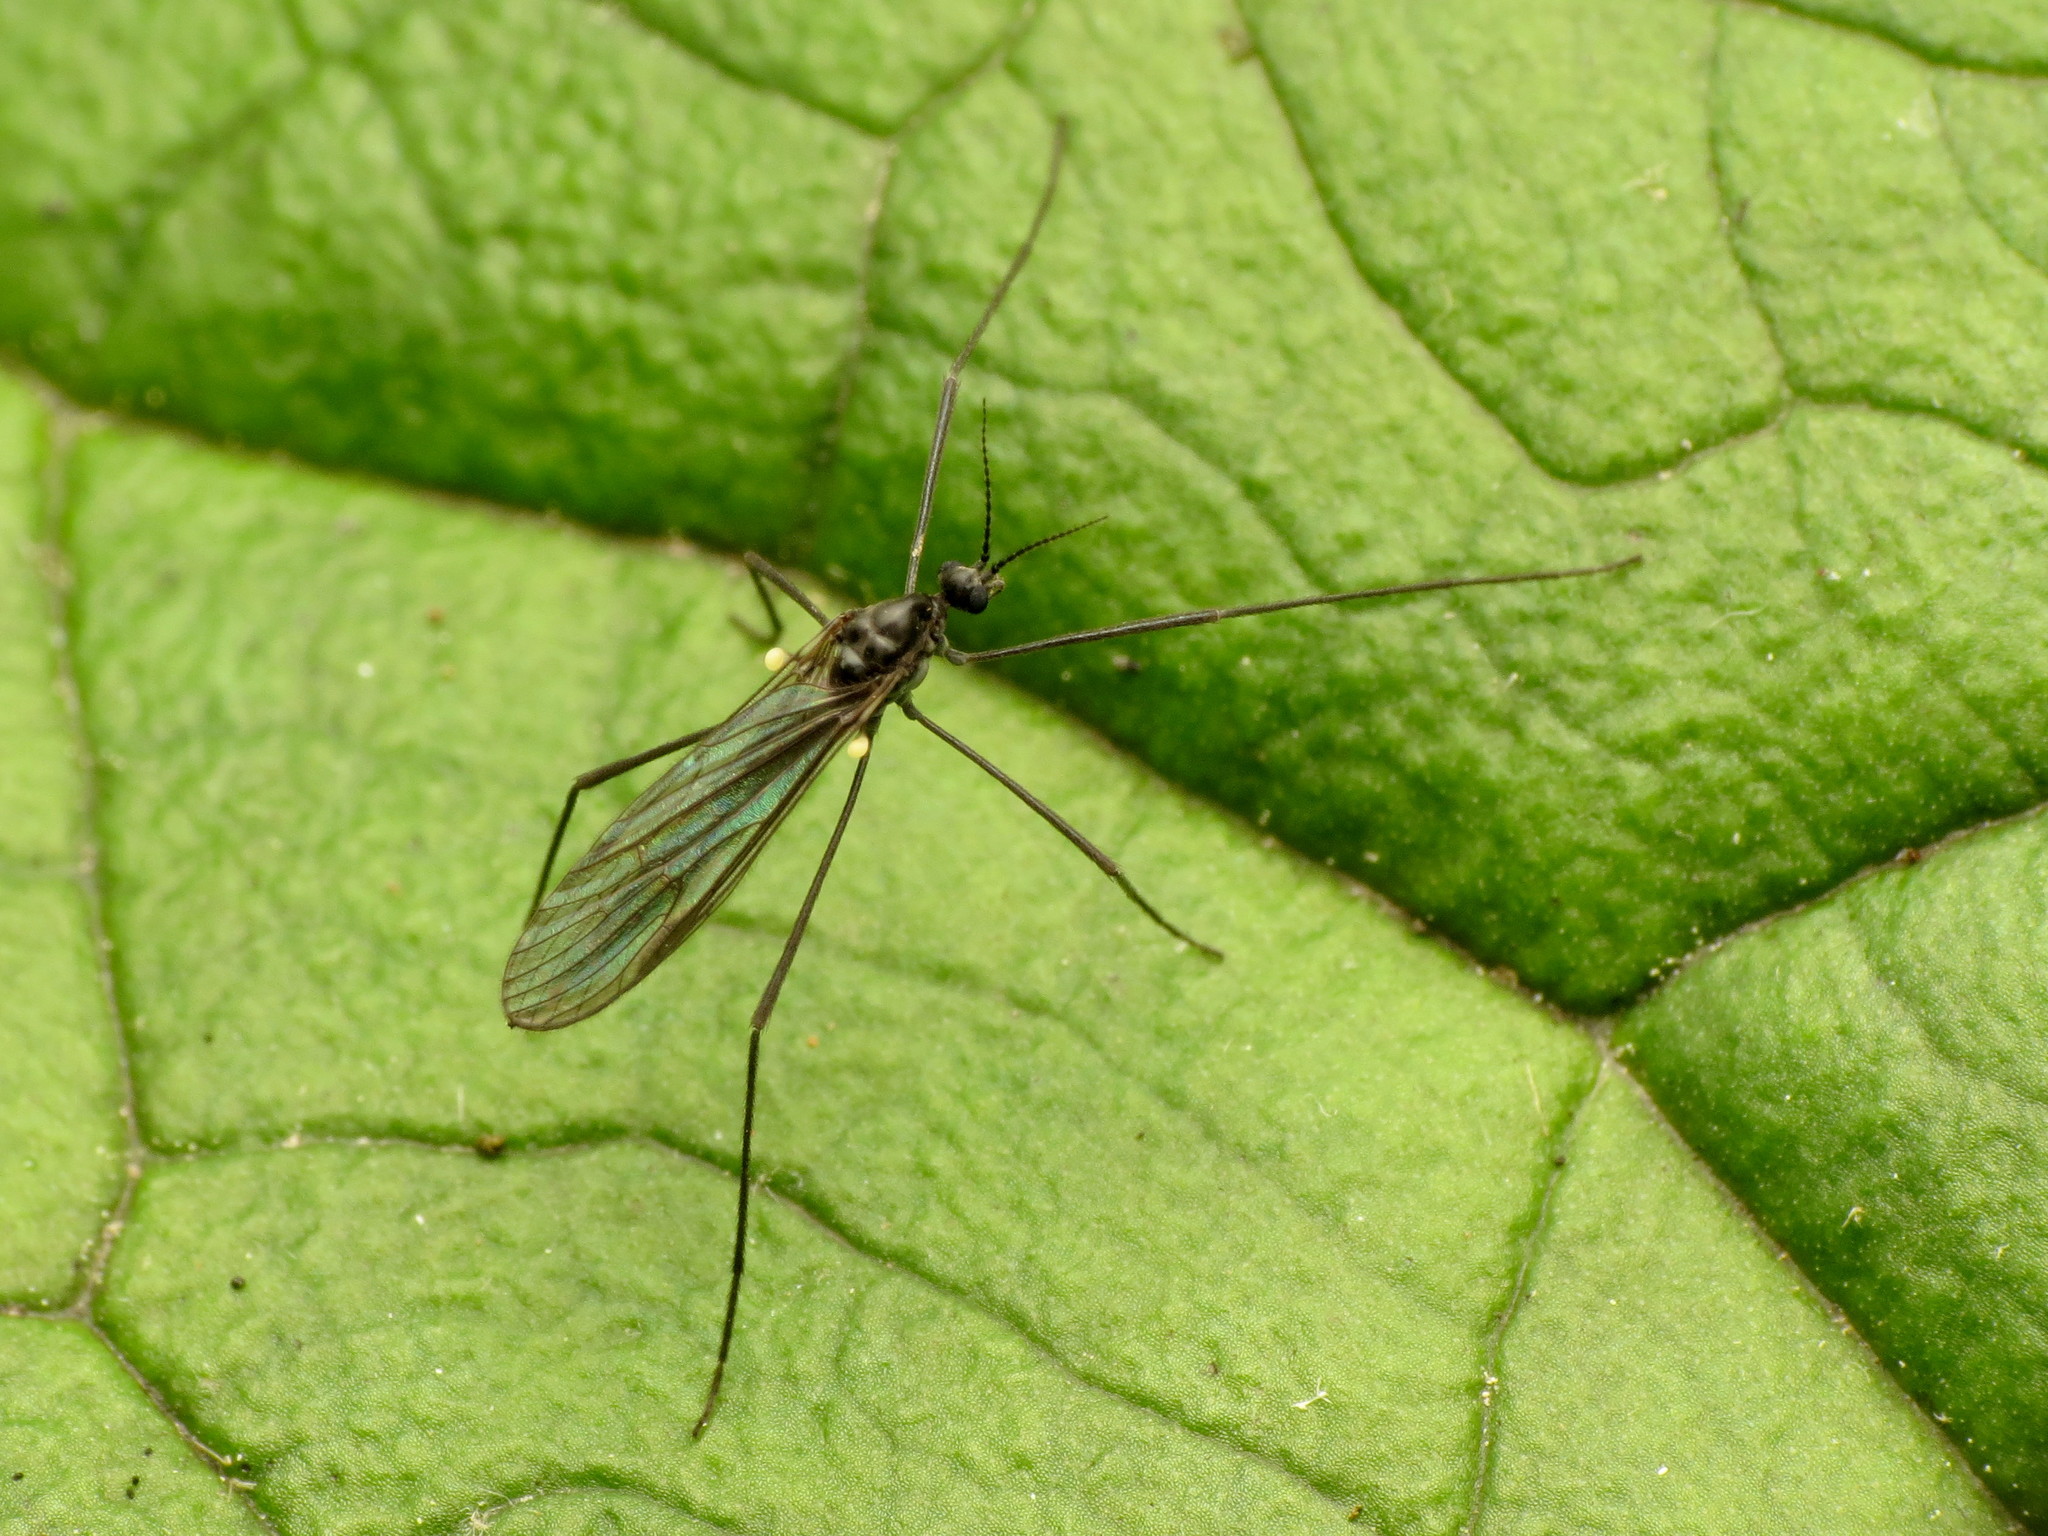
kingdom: Animalia
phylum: Arthropoda
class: Insecta
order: Diptera
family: Limoniidae
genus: Gnophomyia
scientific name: Gnophomyia tristissima
